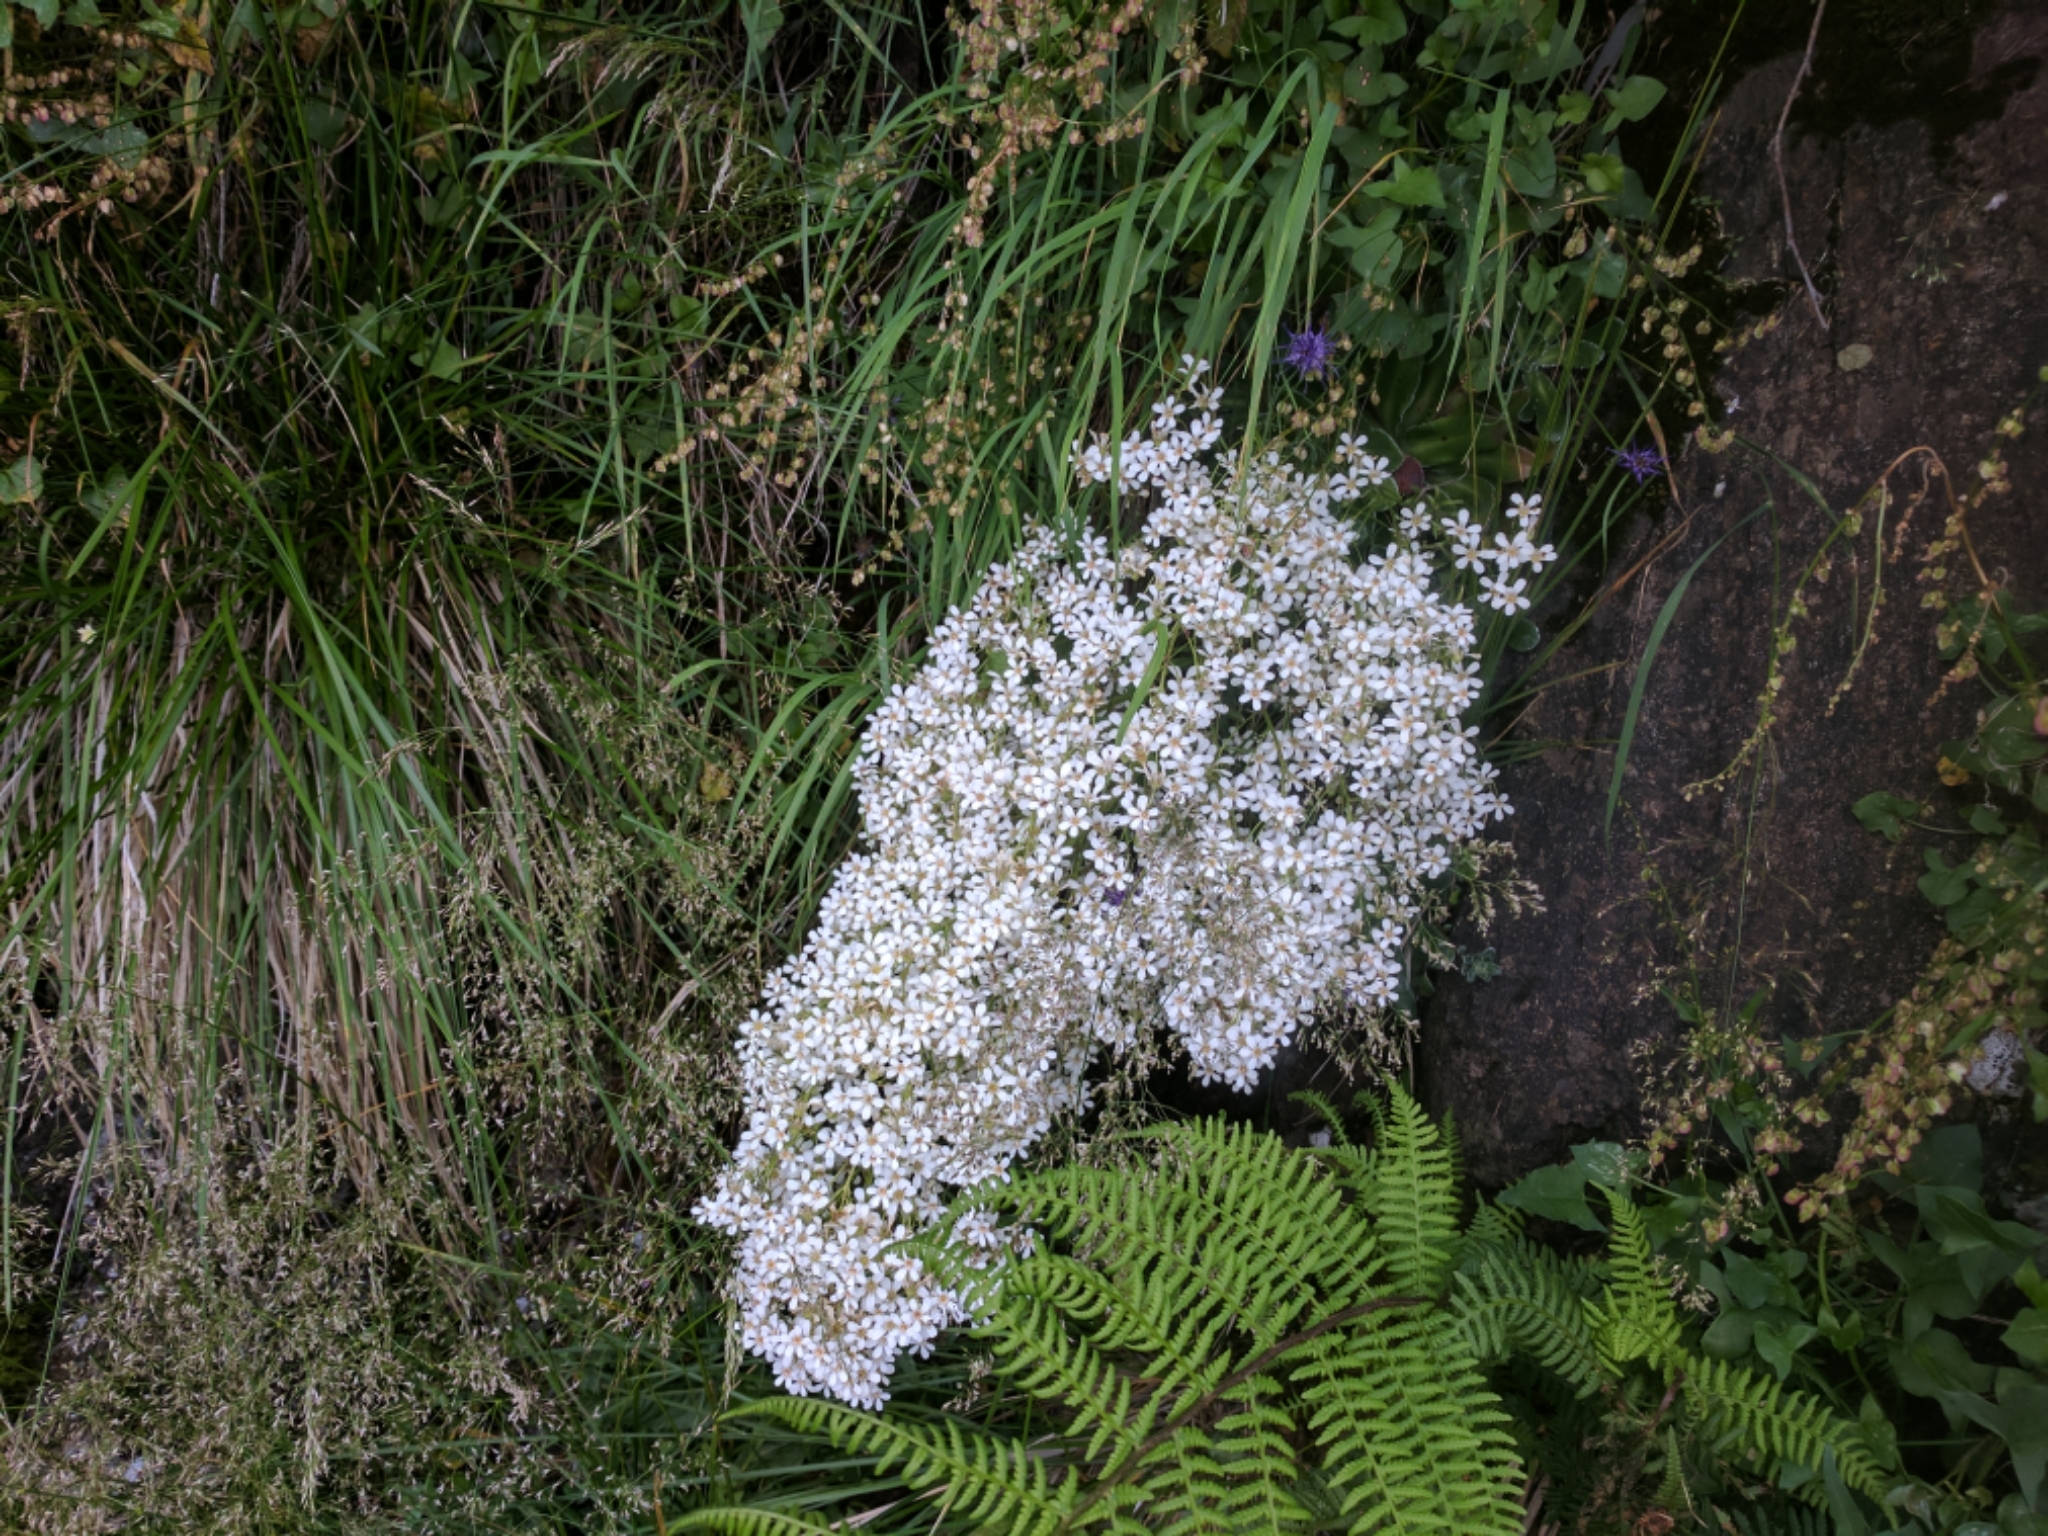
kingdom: Plantae
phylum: Tracheophyta
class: Magnoliopsida
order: Saxifragales
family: Saxifragaceae
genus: Saxifraga
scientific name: Saxifraga cotyledon
